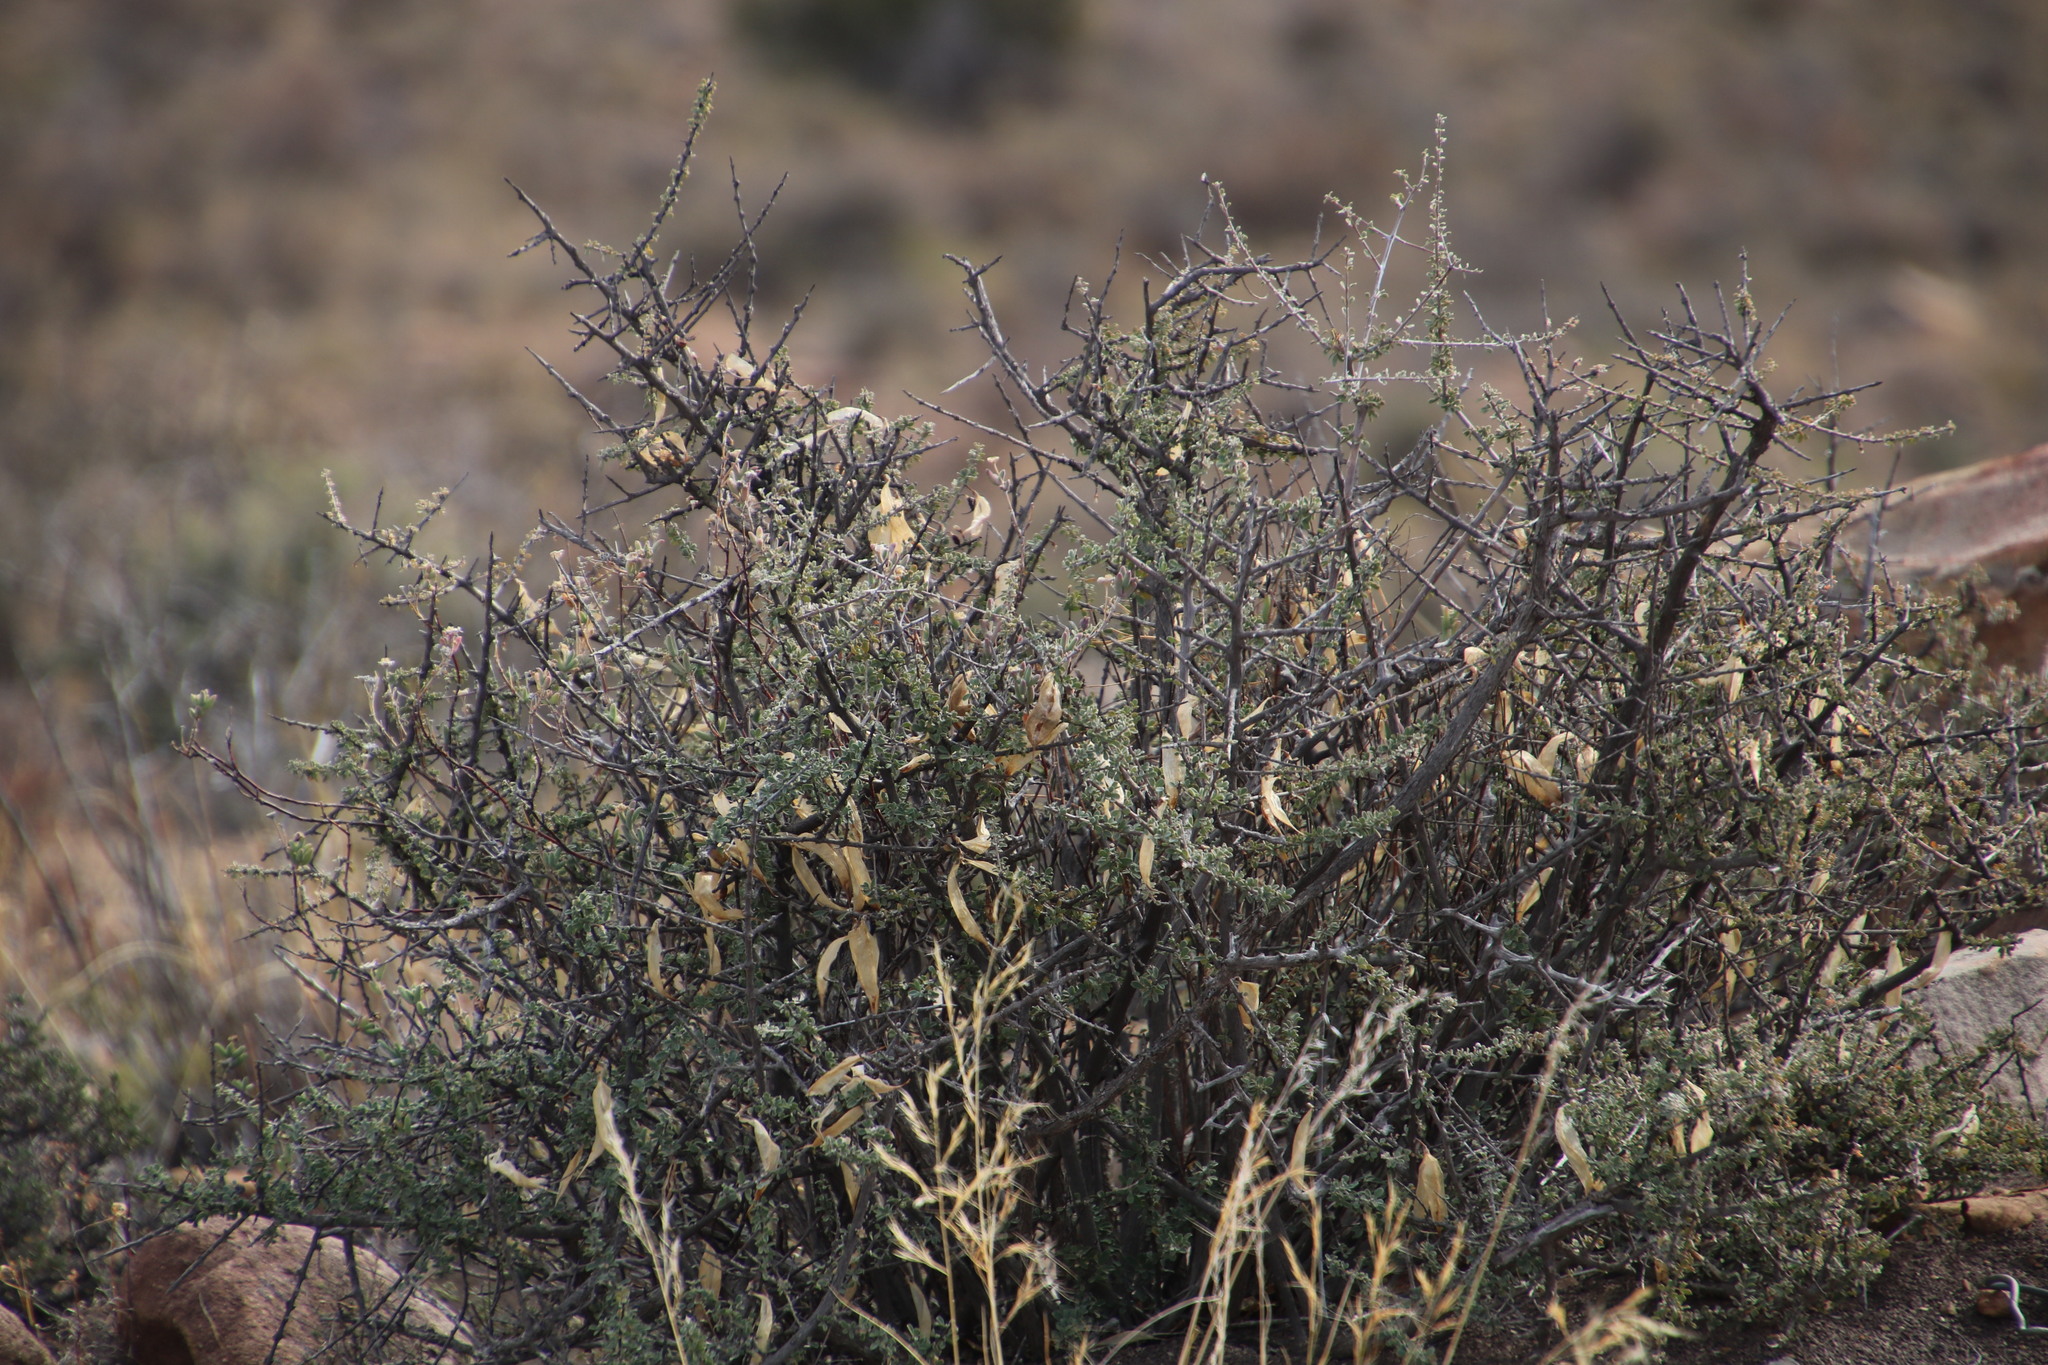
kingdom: Plantae
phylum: Tracheophyta
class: Magnoliopsida
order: Lamiales
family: Bignoniaceae
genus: Rhigozum
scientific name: Rhigozum obovatum
